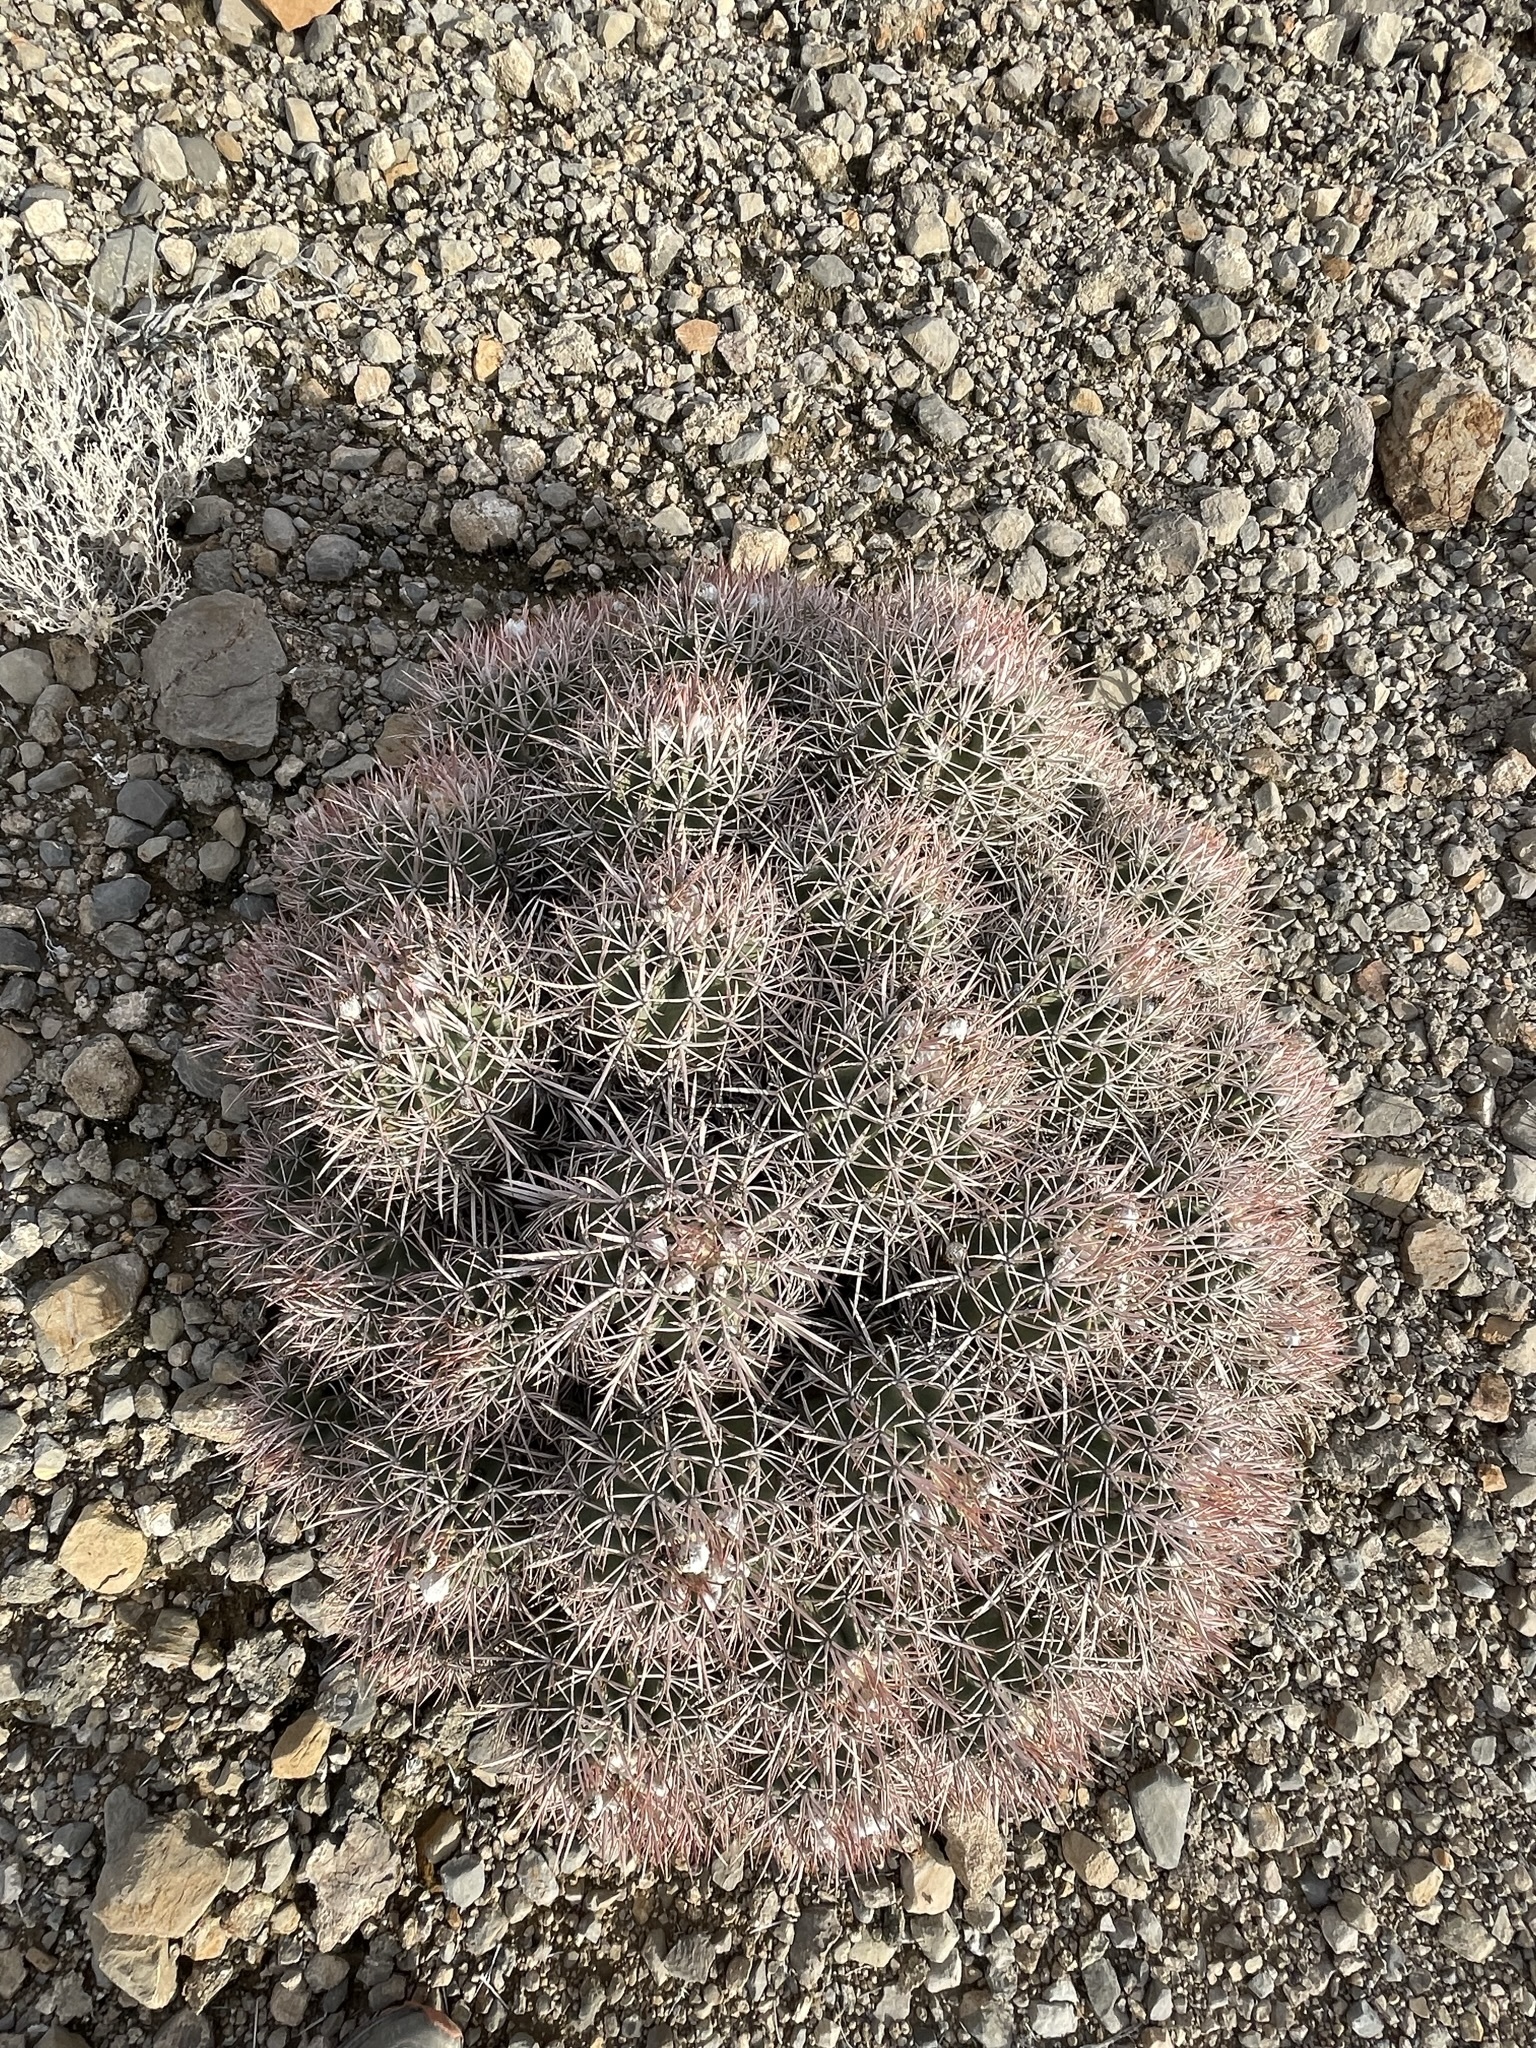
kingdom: Plantae
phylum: Tracheophyta
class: Magnoliopsida
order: Caryophyllales
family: Cactaceae
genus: Echinocactus
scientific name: Echinocactus polycephalus
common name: Cottontop cactus
